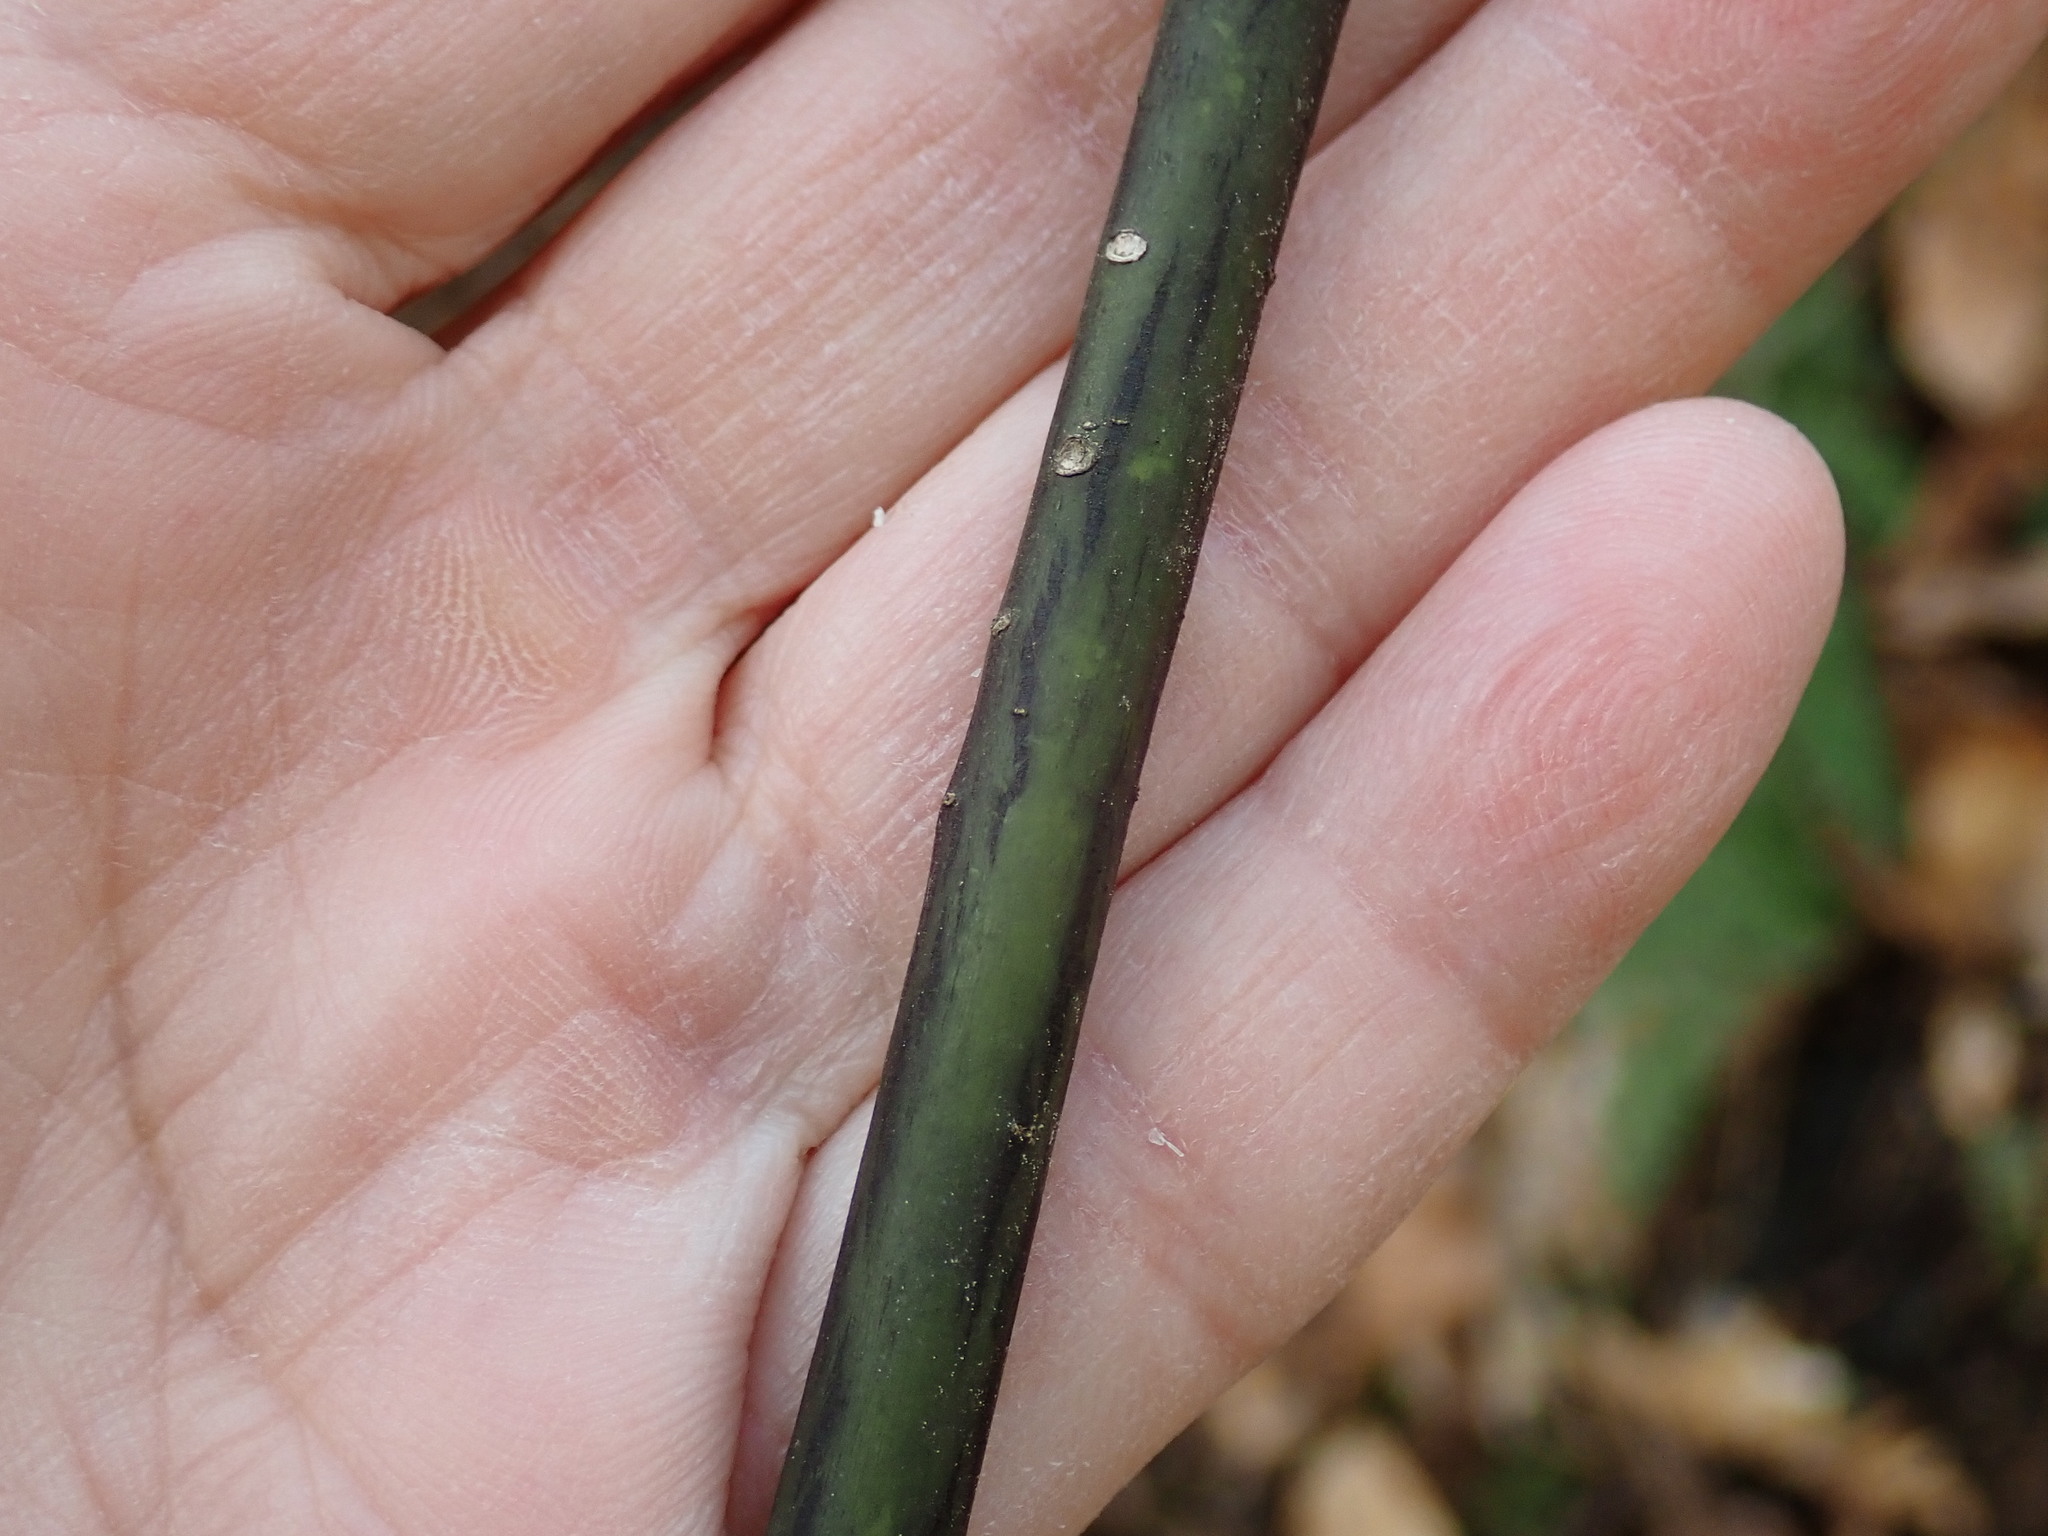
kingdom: Plantae
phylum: Tracheophyta
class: Magnoliopsida
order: Sapindales
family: Sapindaceae
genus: Acer
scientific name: Acer pensylvanicum
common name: Moosewood
